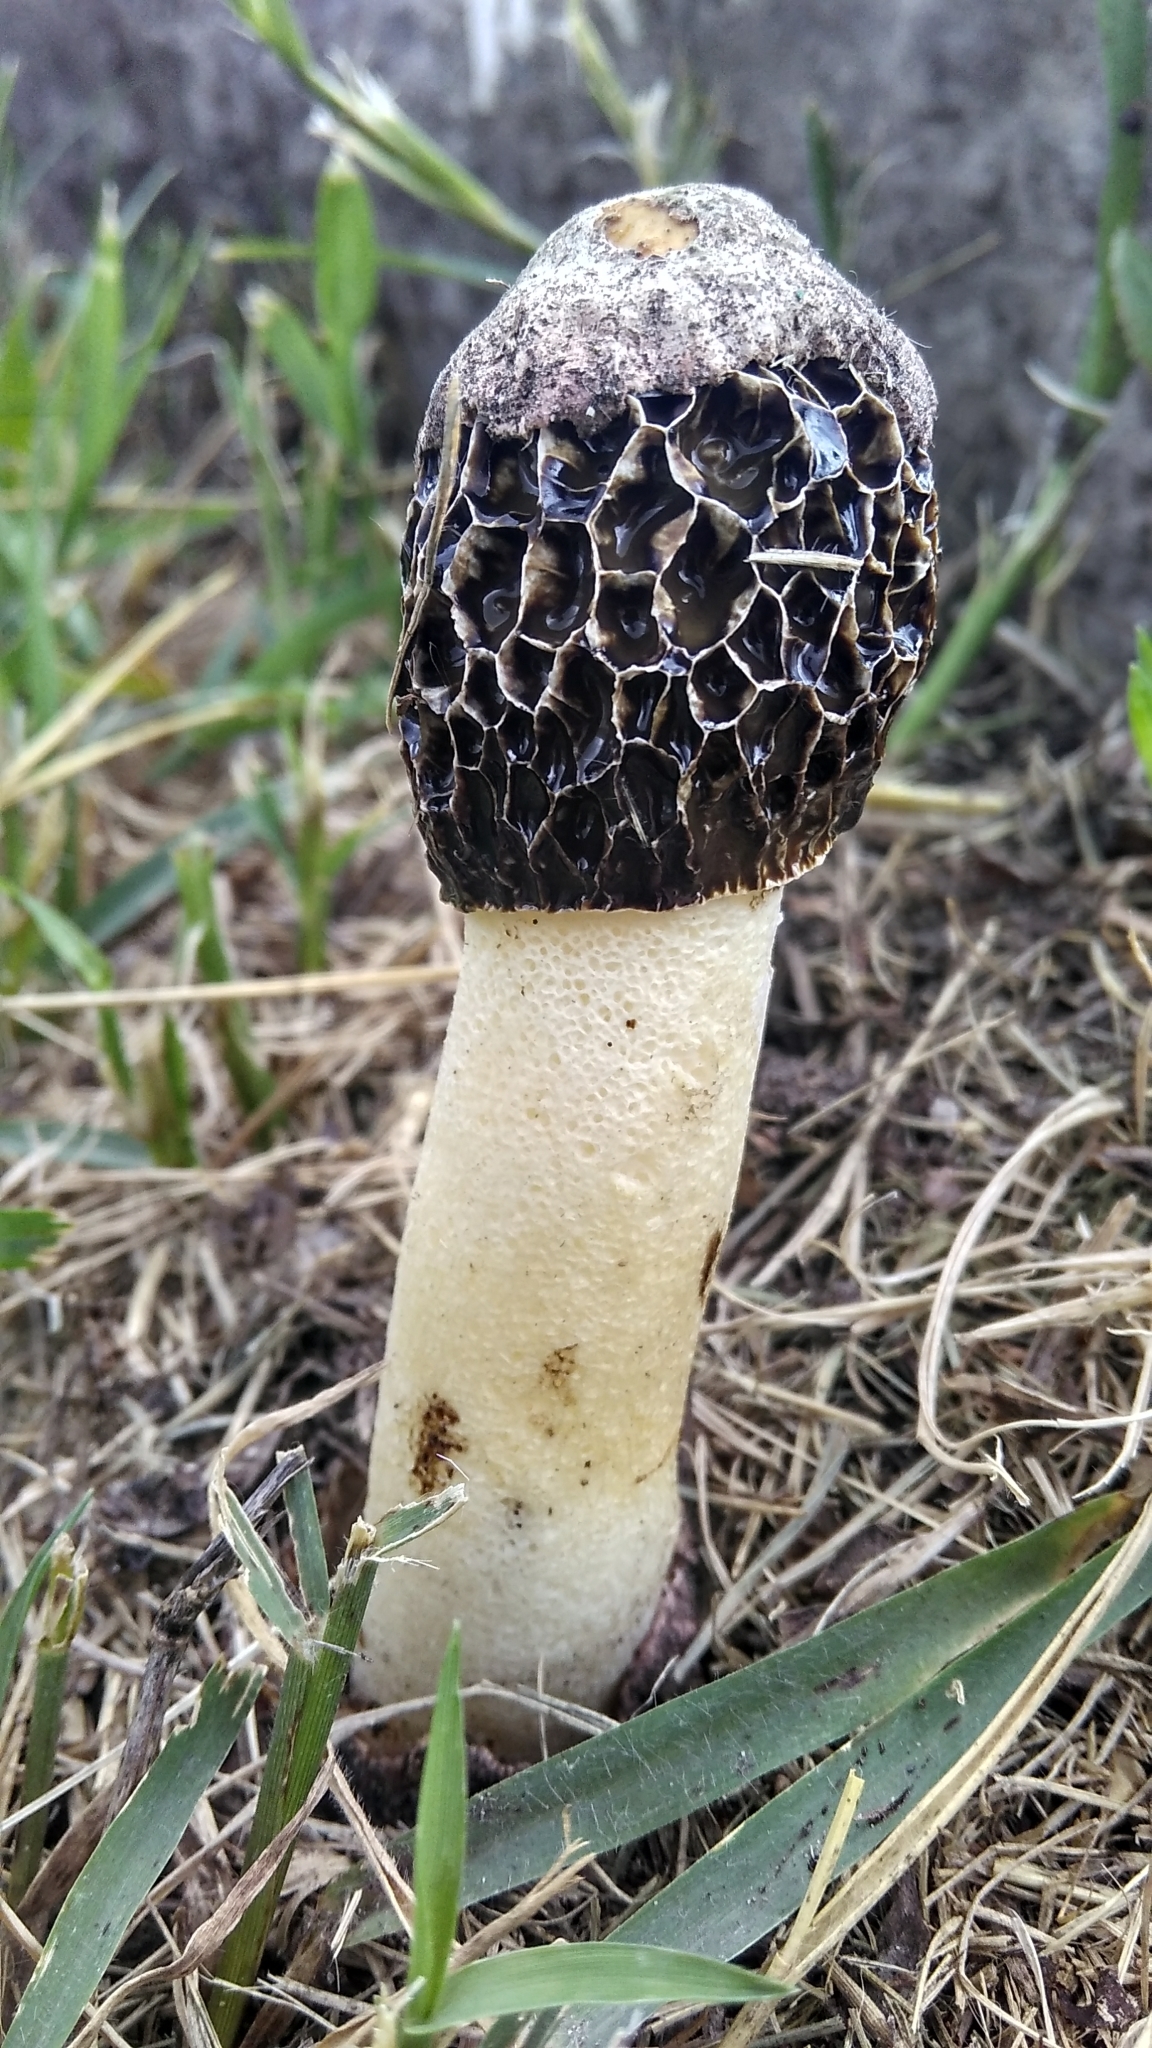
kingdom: Fungi
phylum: Basidiomycota
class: Agaricomycetes
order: Phallales
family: Phallaceae
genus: Phallus
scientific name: Phallus hadriani
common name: Sand stinkhorn
